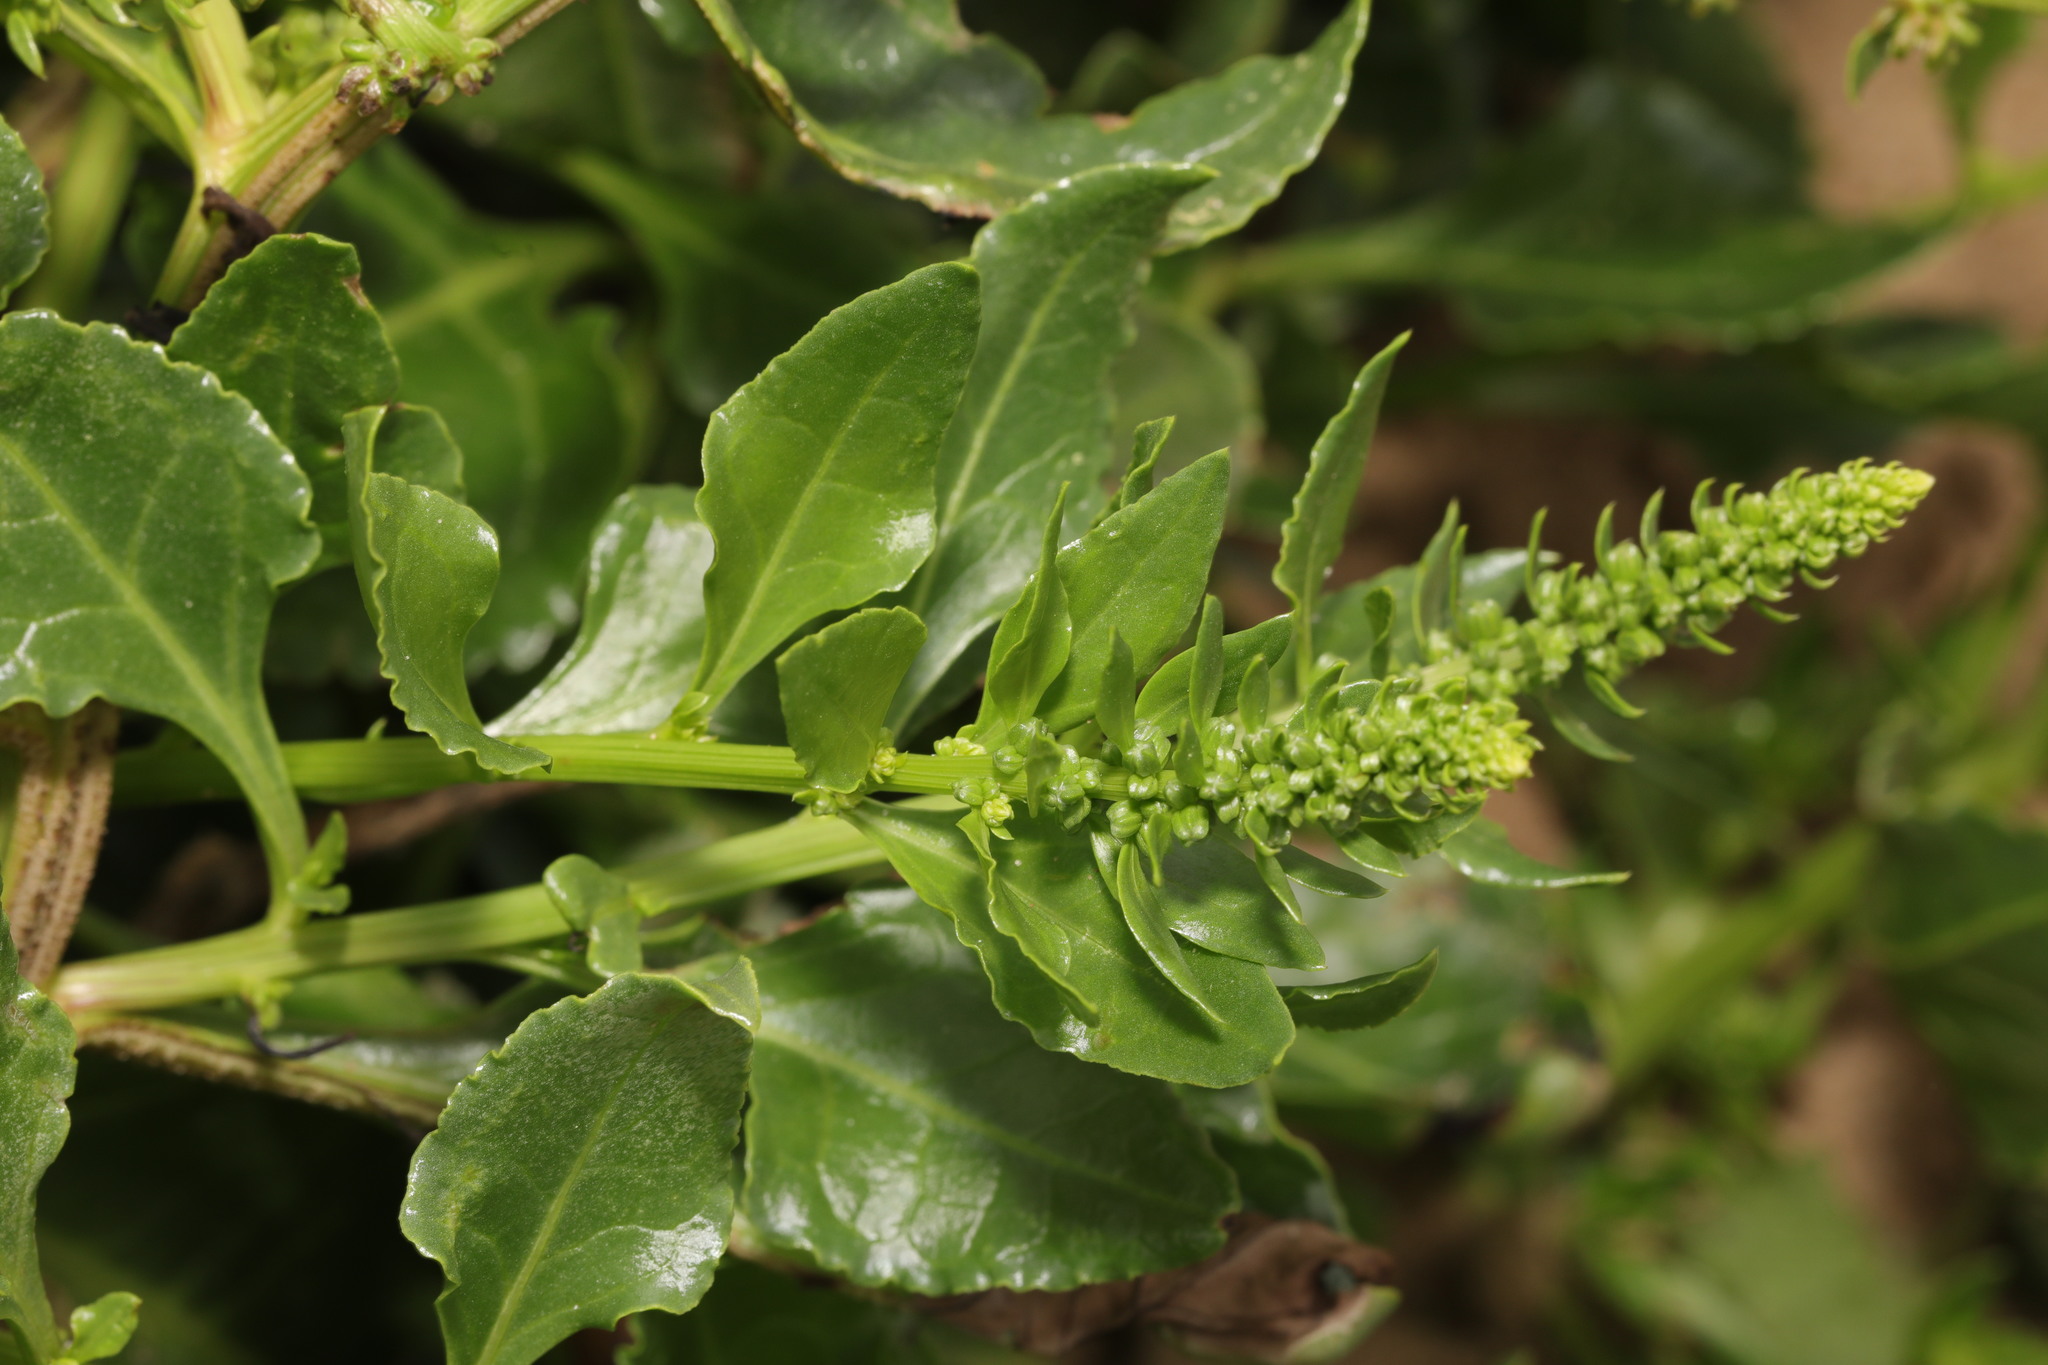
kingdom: Plantae
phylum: Tracheophyta
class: Magnoliopsida
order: Caryophyllales
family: Amaranthaceae
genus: Beta
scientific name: Beta vulgaris
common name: Beet
